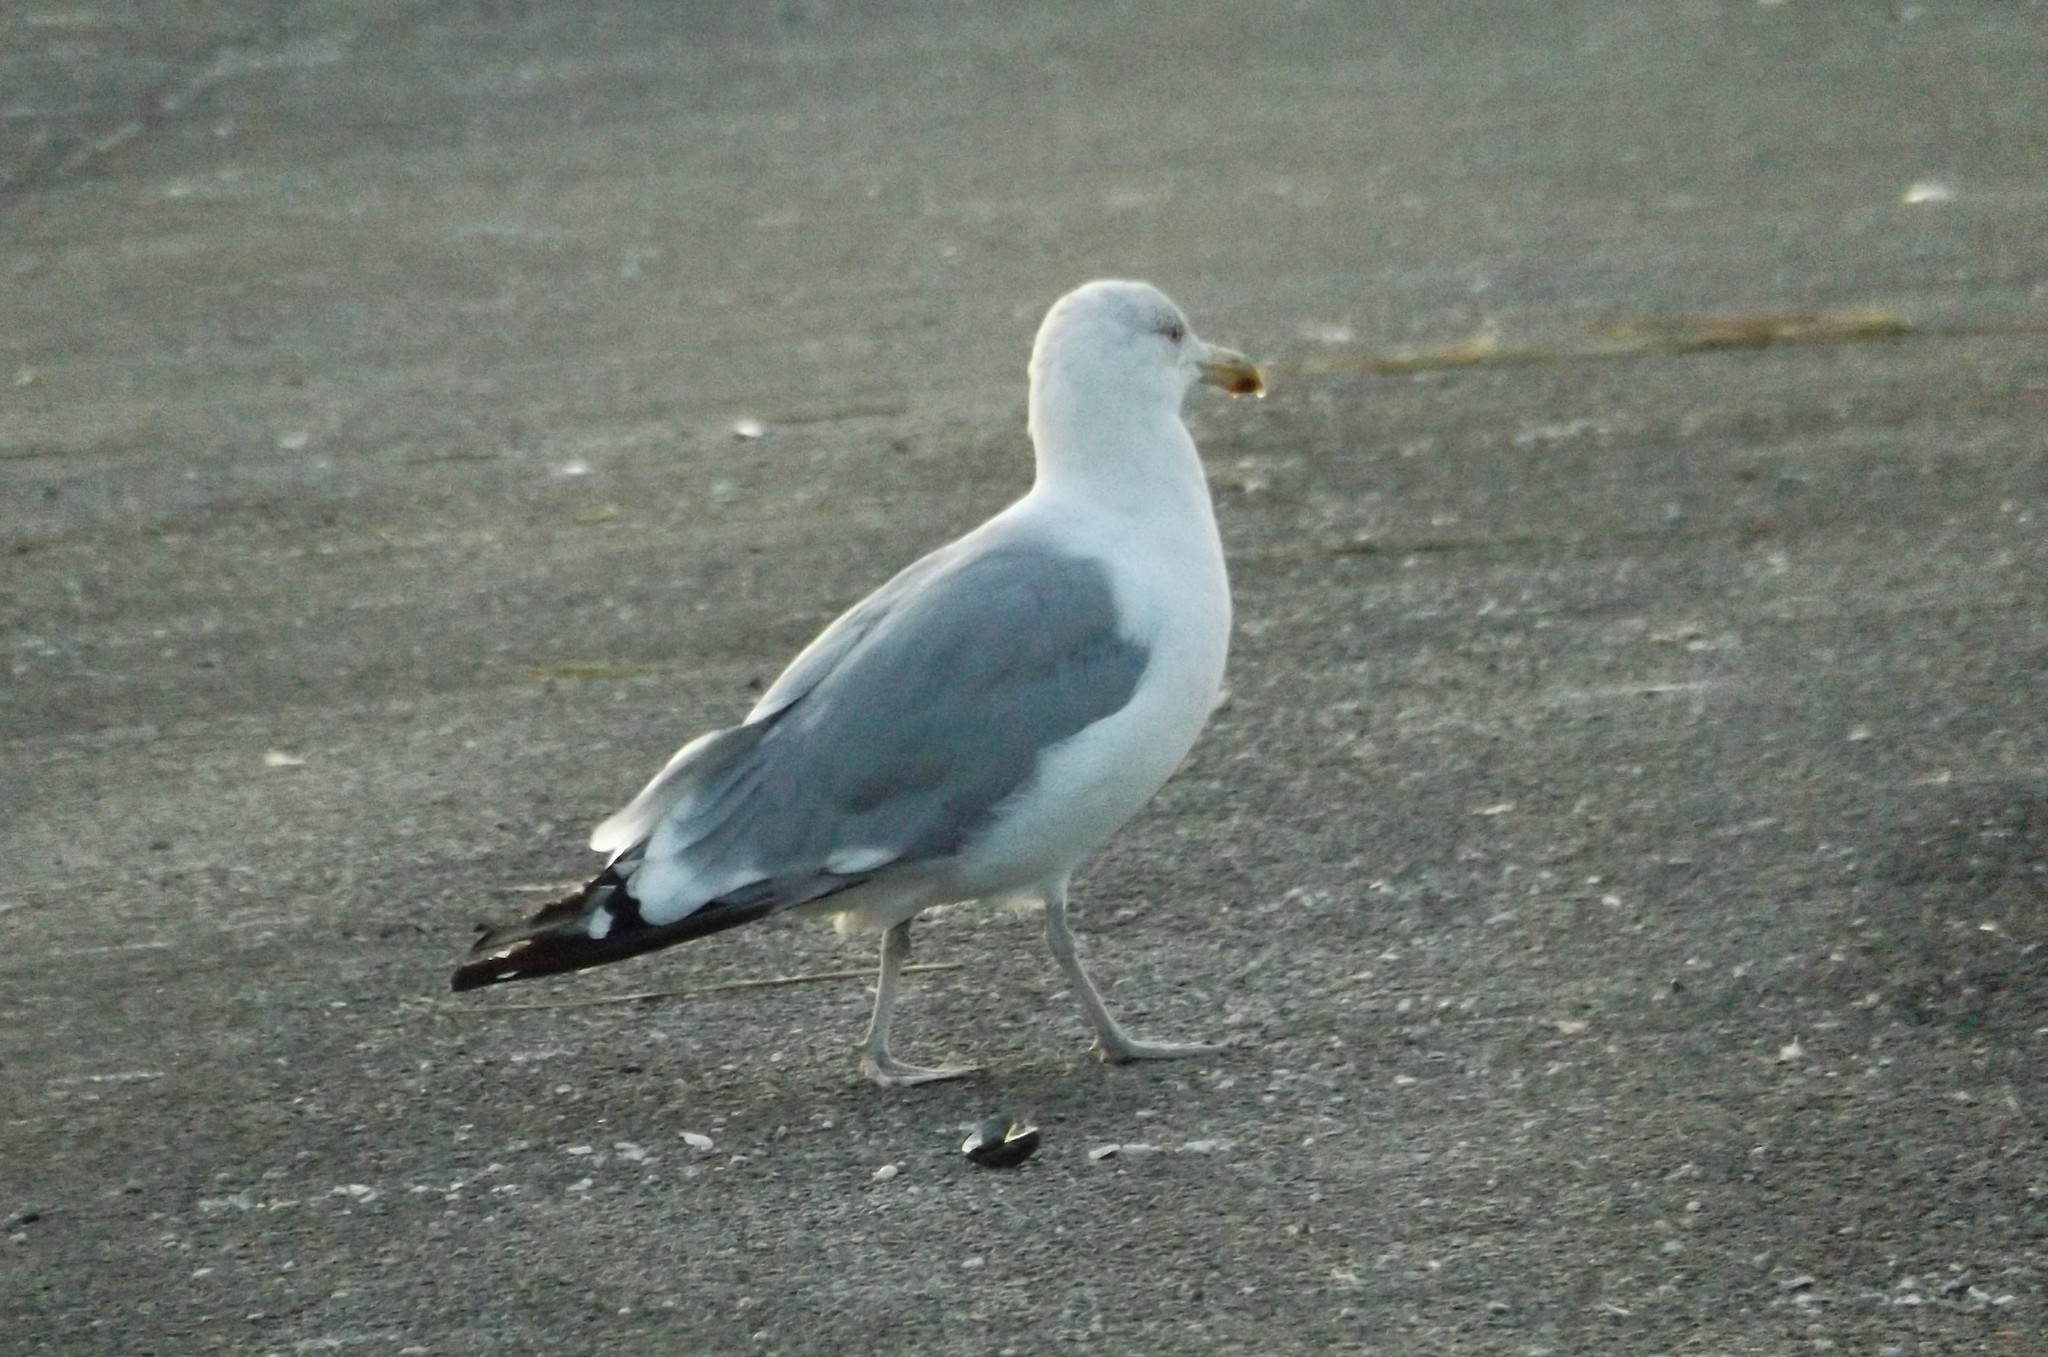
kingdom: Animalia
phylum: Chordata
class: Aves
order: Charadriiformes
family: Laridae
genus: Larus
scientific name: Larus argentatus
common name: Herring gull
